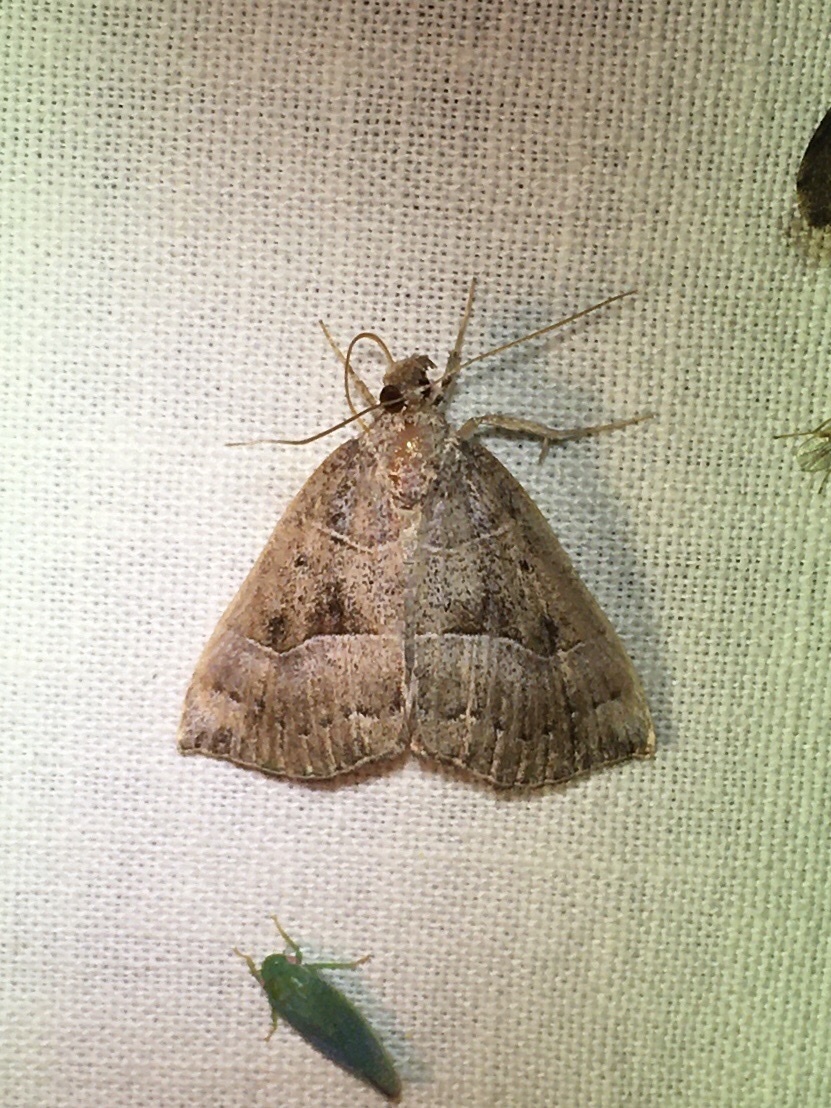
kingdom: Animalia
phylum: Arthropoda
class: Insecta
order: Lepidoptera
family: Erebidae
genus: Hypena
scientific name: Hypena deceptalis
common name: Deceptive snout
